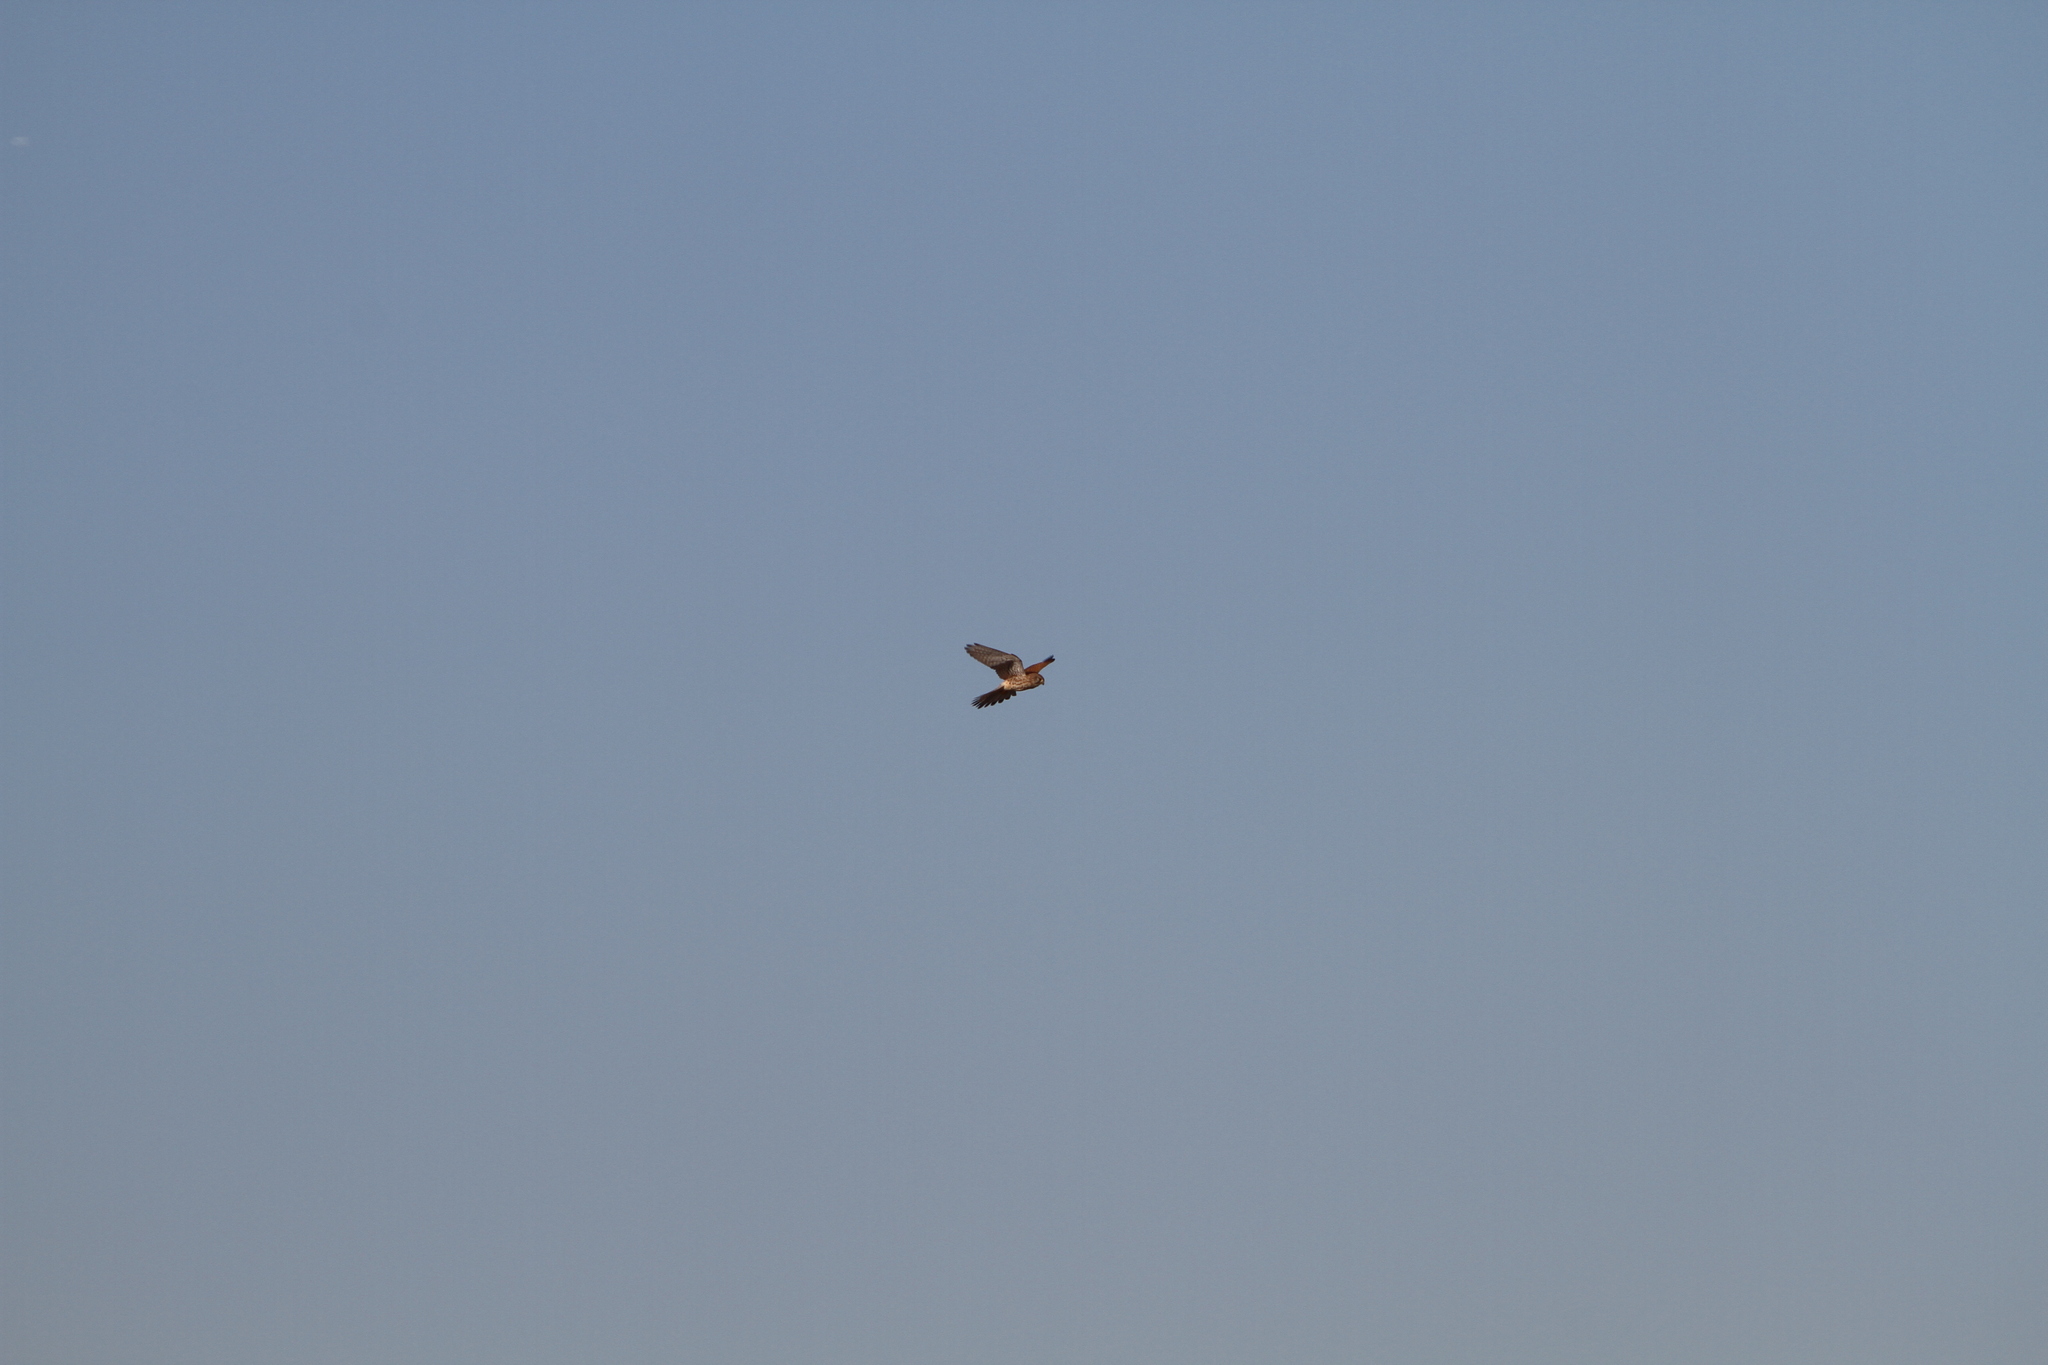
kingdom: Animalia
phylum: Chordata
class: Aves
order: Falconiformes
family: Falconidae
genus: Falco
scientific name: Falco tinnunculus
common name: Common kestrel
